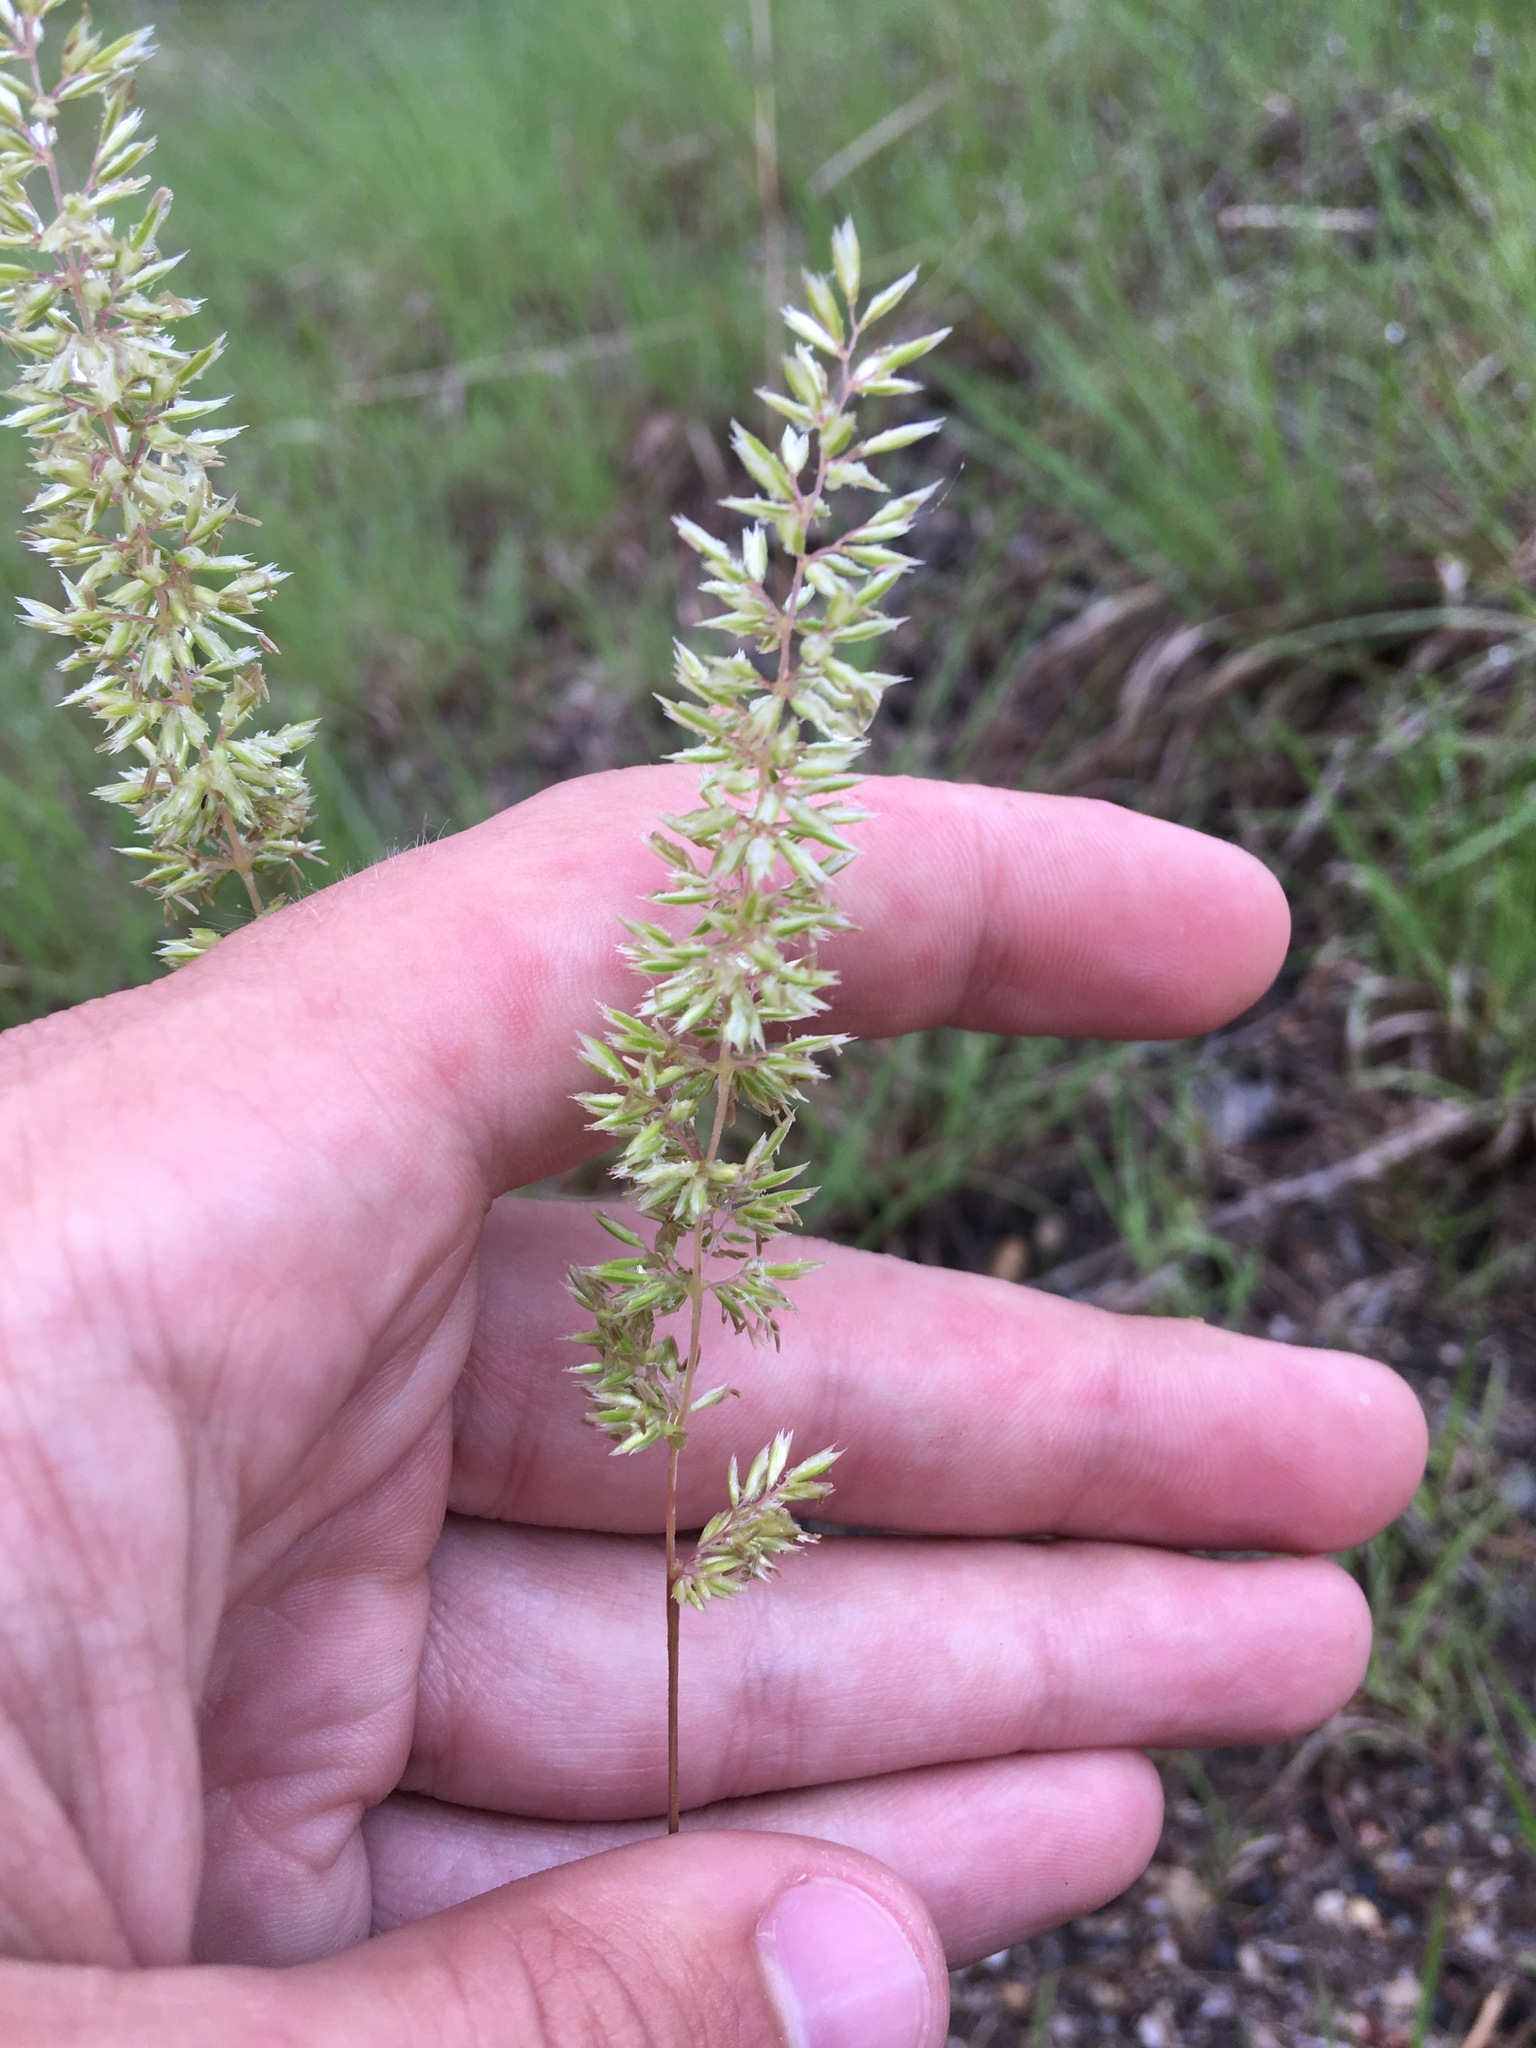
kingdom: Plantae
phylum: Tracheophyta
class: Liliopsida
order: Poales
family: Poaceae
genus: Koeleria
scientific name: Koeleria macrantha
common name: Crested hair-grass
